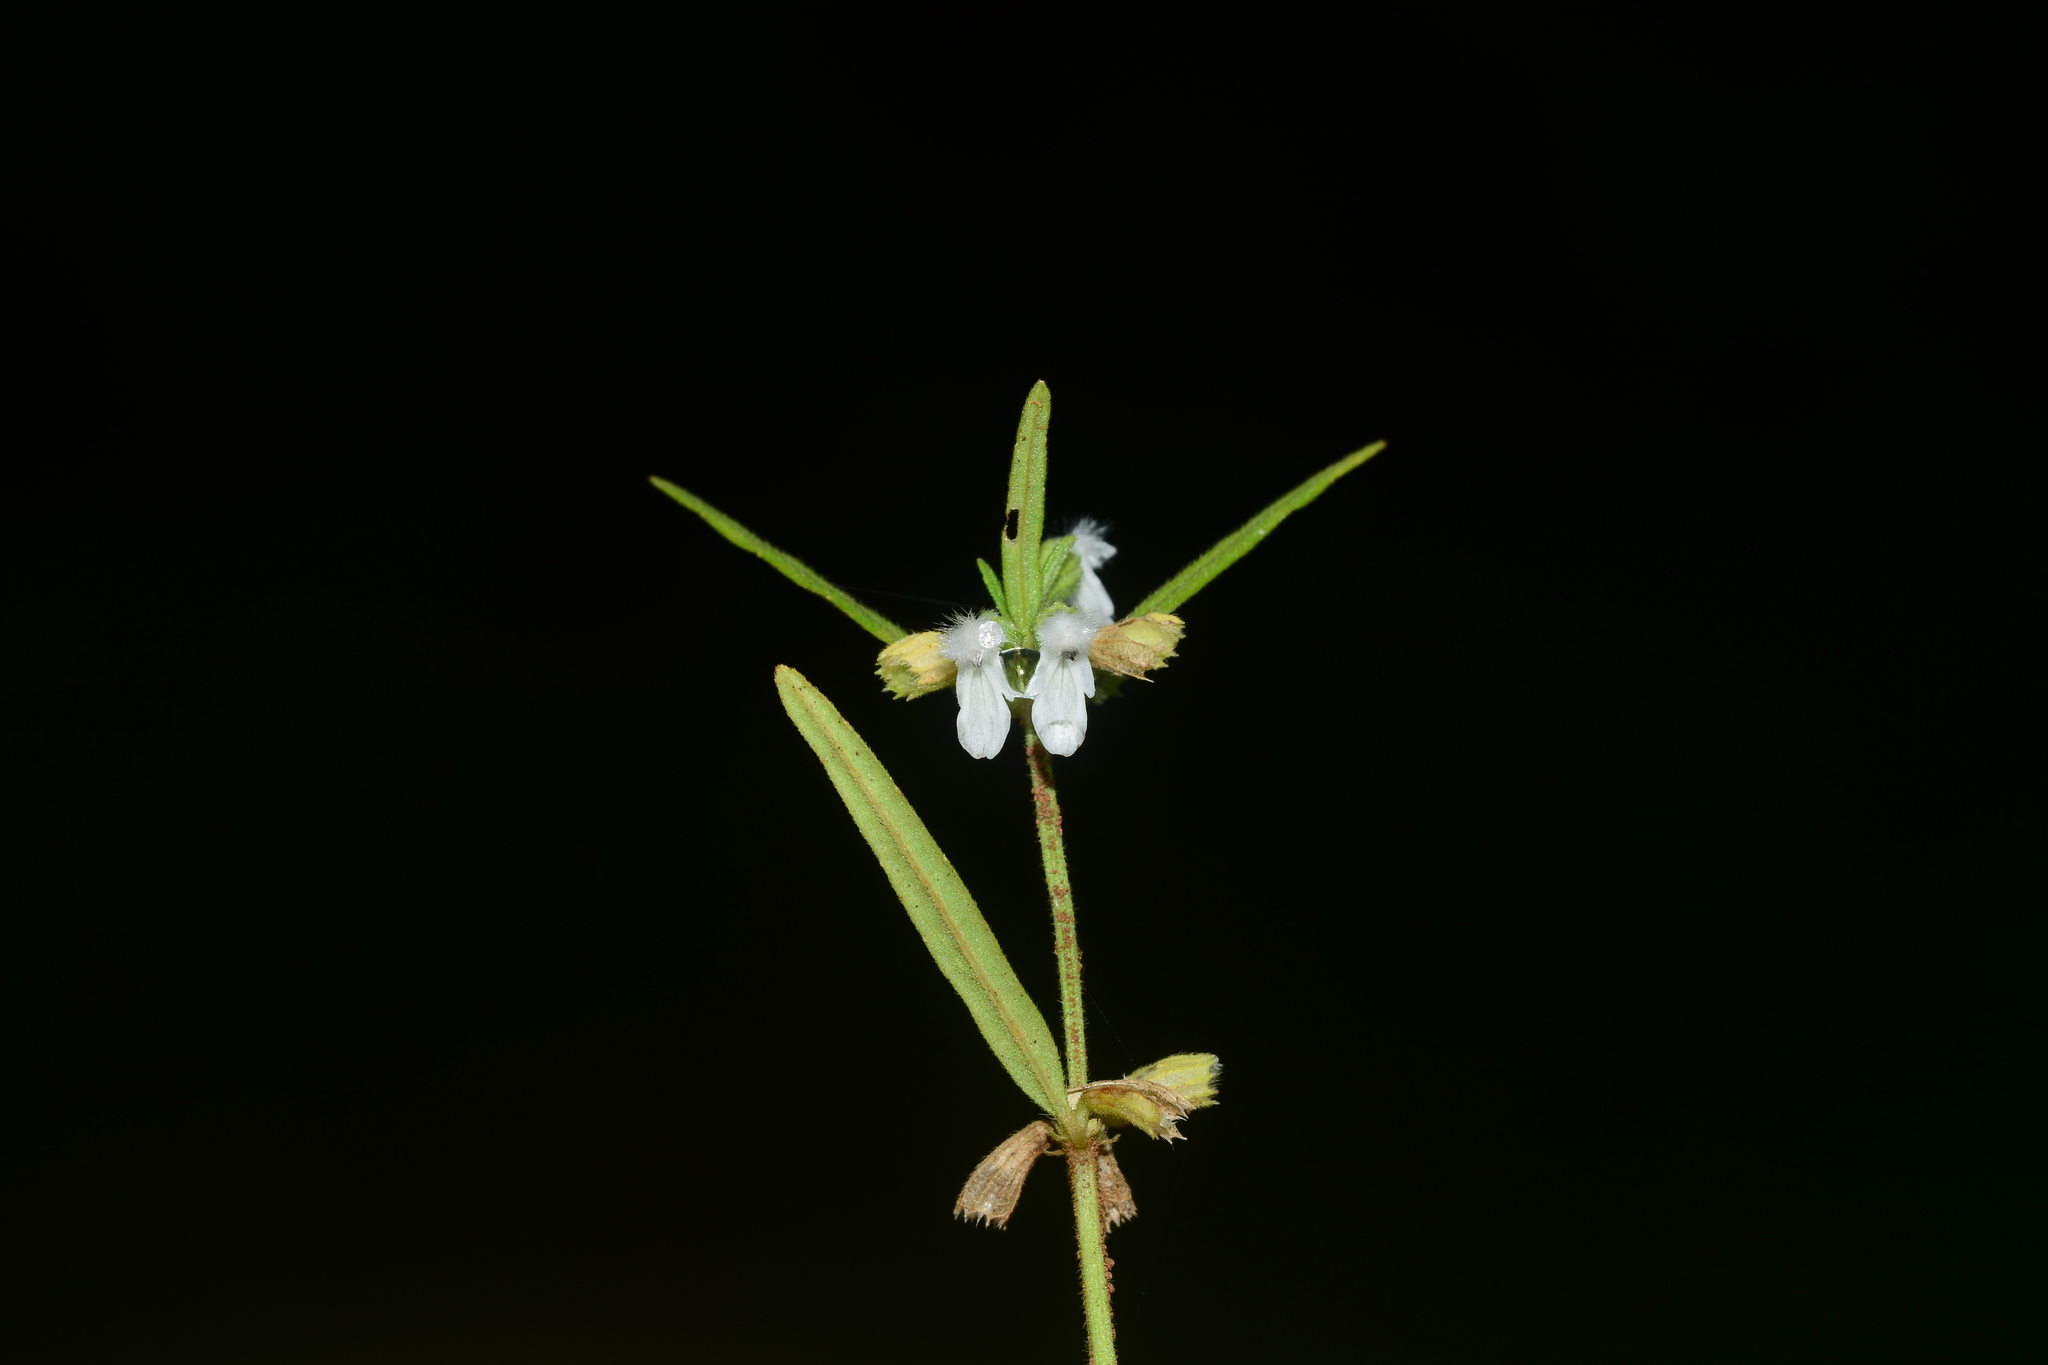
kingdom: Plantae
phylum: Tracheophyta
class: Magnoliopsida
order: Lamiales
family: Lamiaceae
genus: Leucas
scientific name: Leucas longifolia
